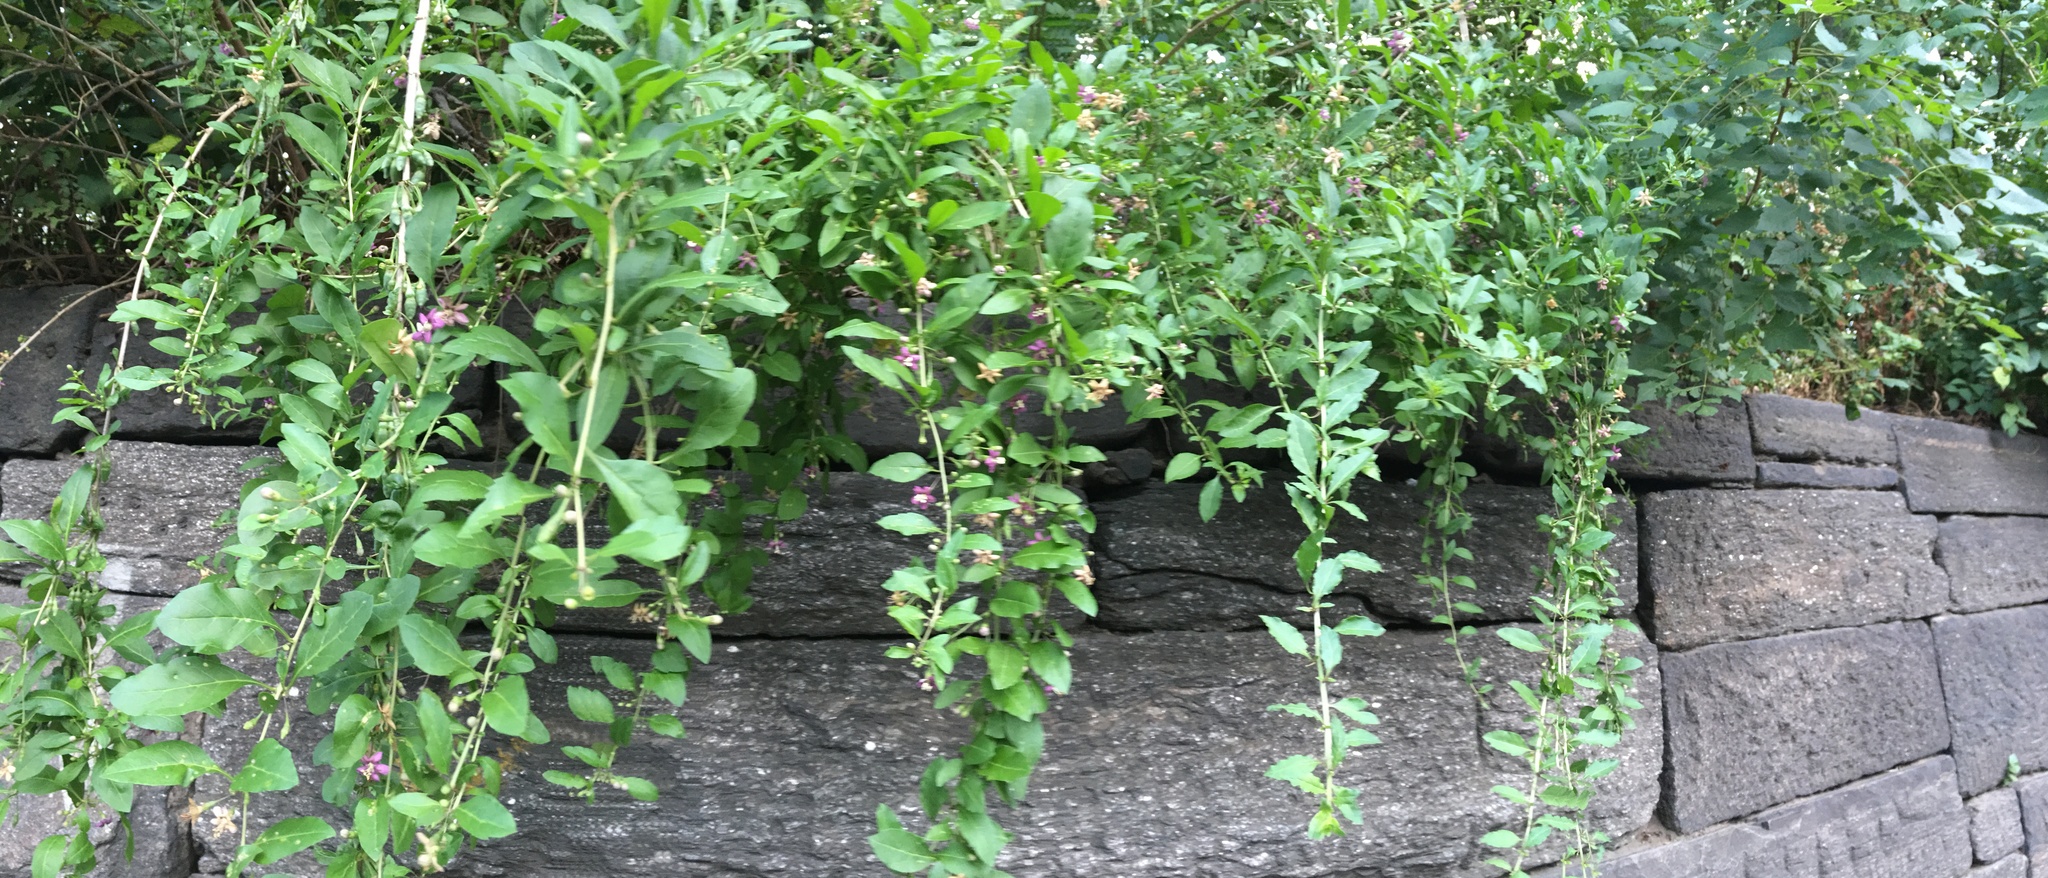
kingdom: Plantae
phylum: Tracheophyta
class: Magnoliopsida
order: Solanales
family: Solanaceae
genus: Lycium
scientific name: Lycium barbarum
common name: Duke of argyll's teaplant
